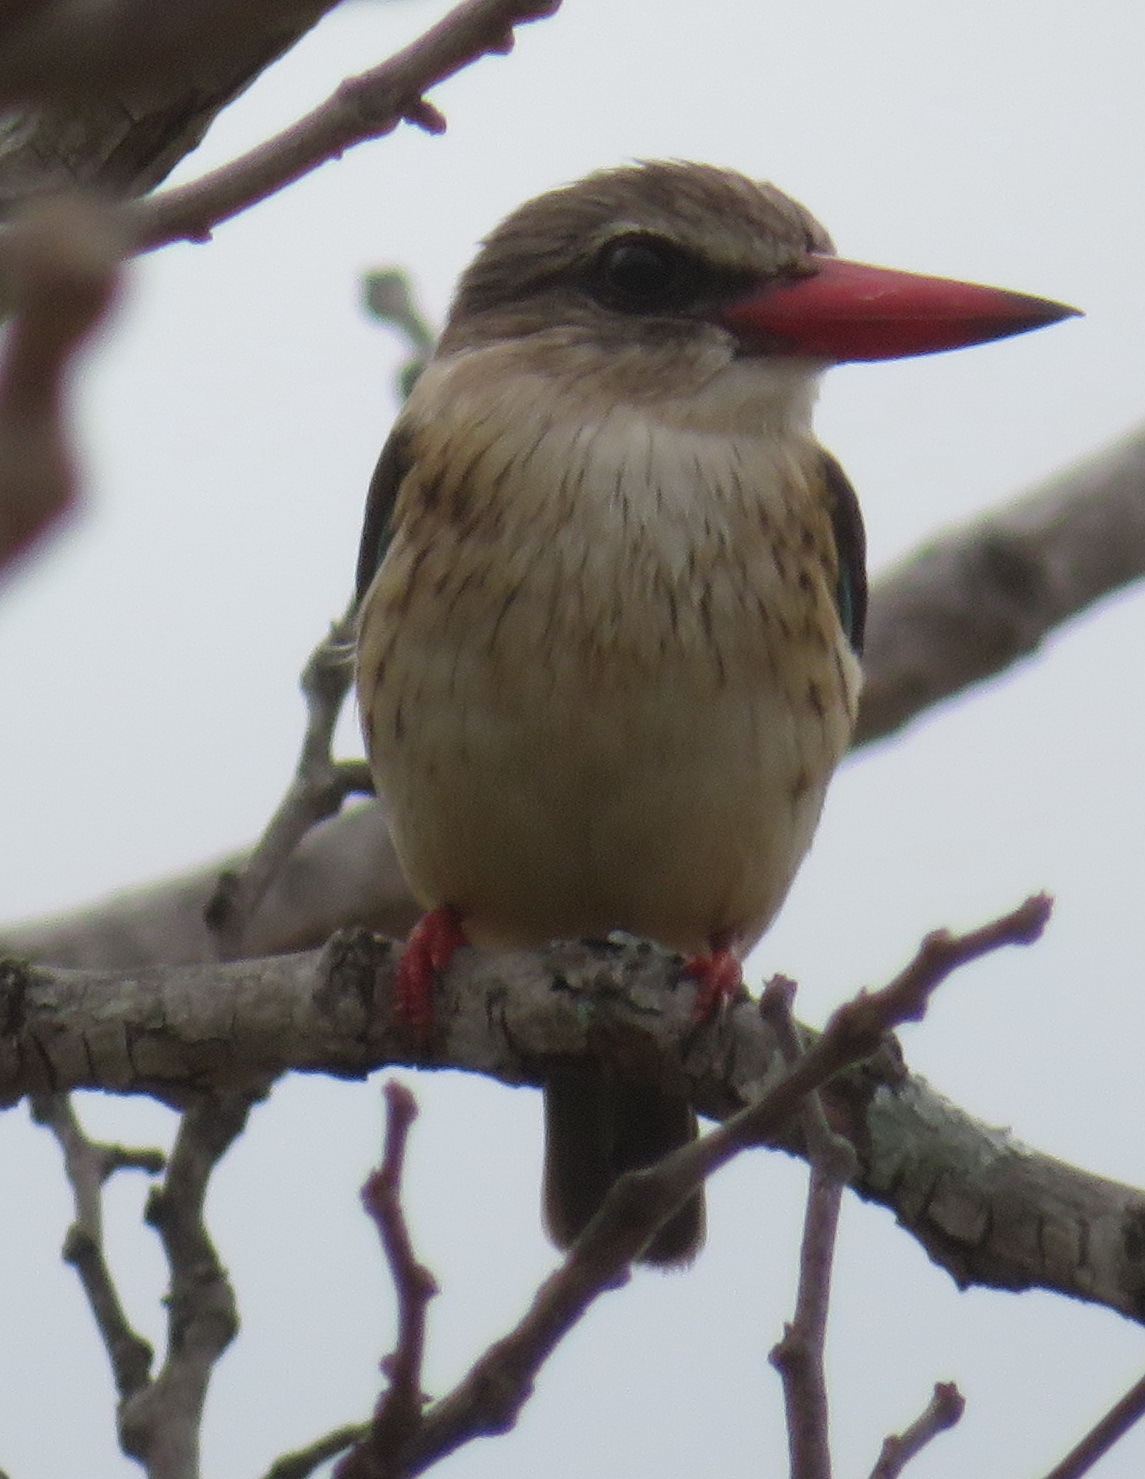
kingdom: Animalia
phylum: Chordata
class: Aves
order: Coraciiformes
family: Alcedinidae
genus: Halcyon
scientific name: Halcyon albiventris
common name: Brown-hooded kingfisher
